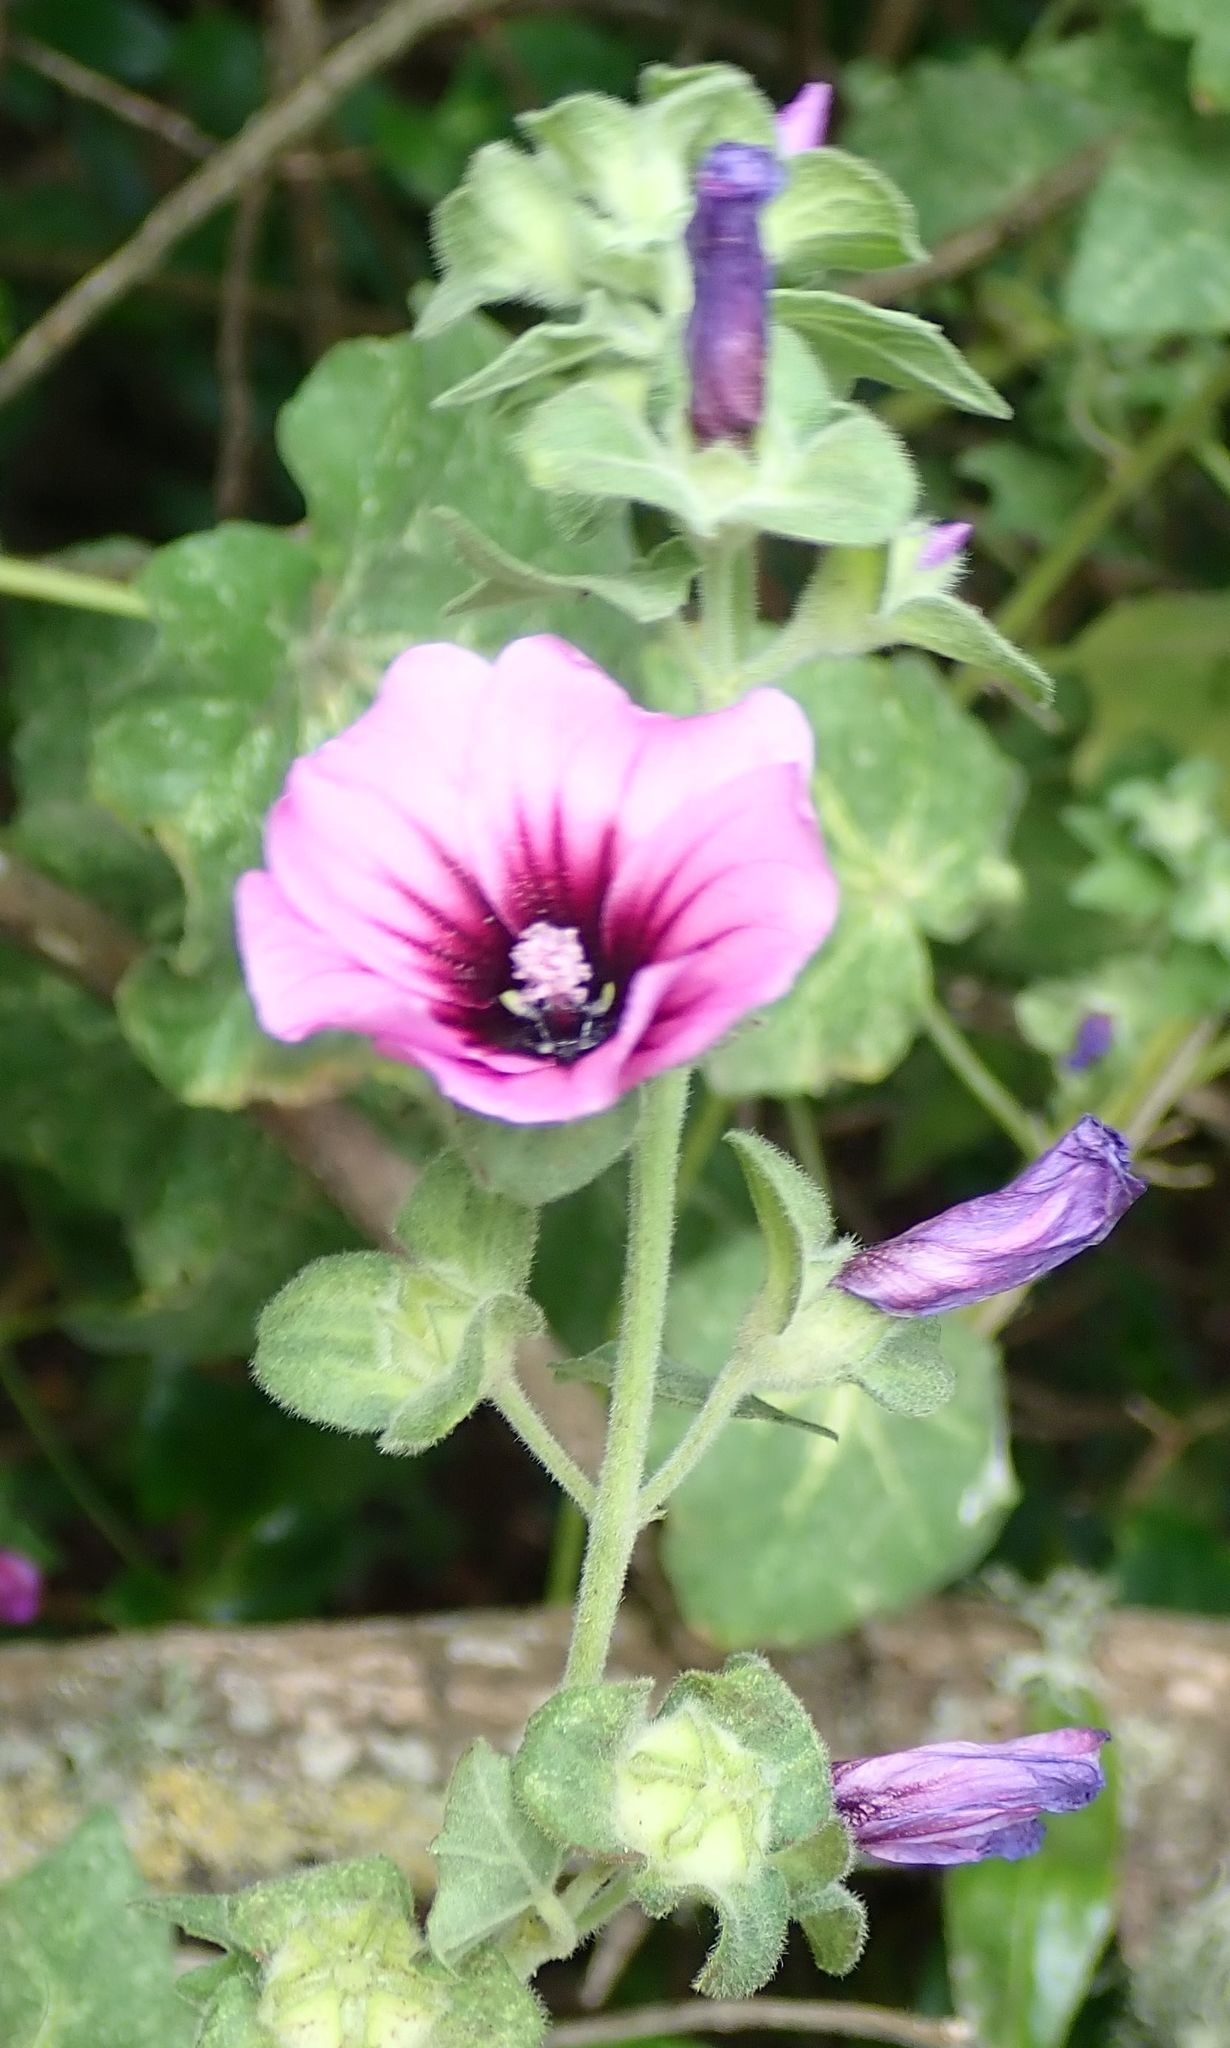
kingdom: Plantae
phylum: Tracheophyta
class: Magnoliopsida
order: Malvales
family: Malvaceae
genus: Malva
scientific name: Malva arborea
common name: Tree mallow
